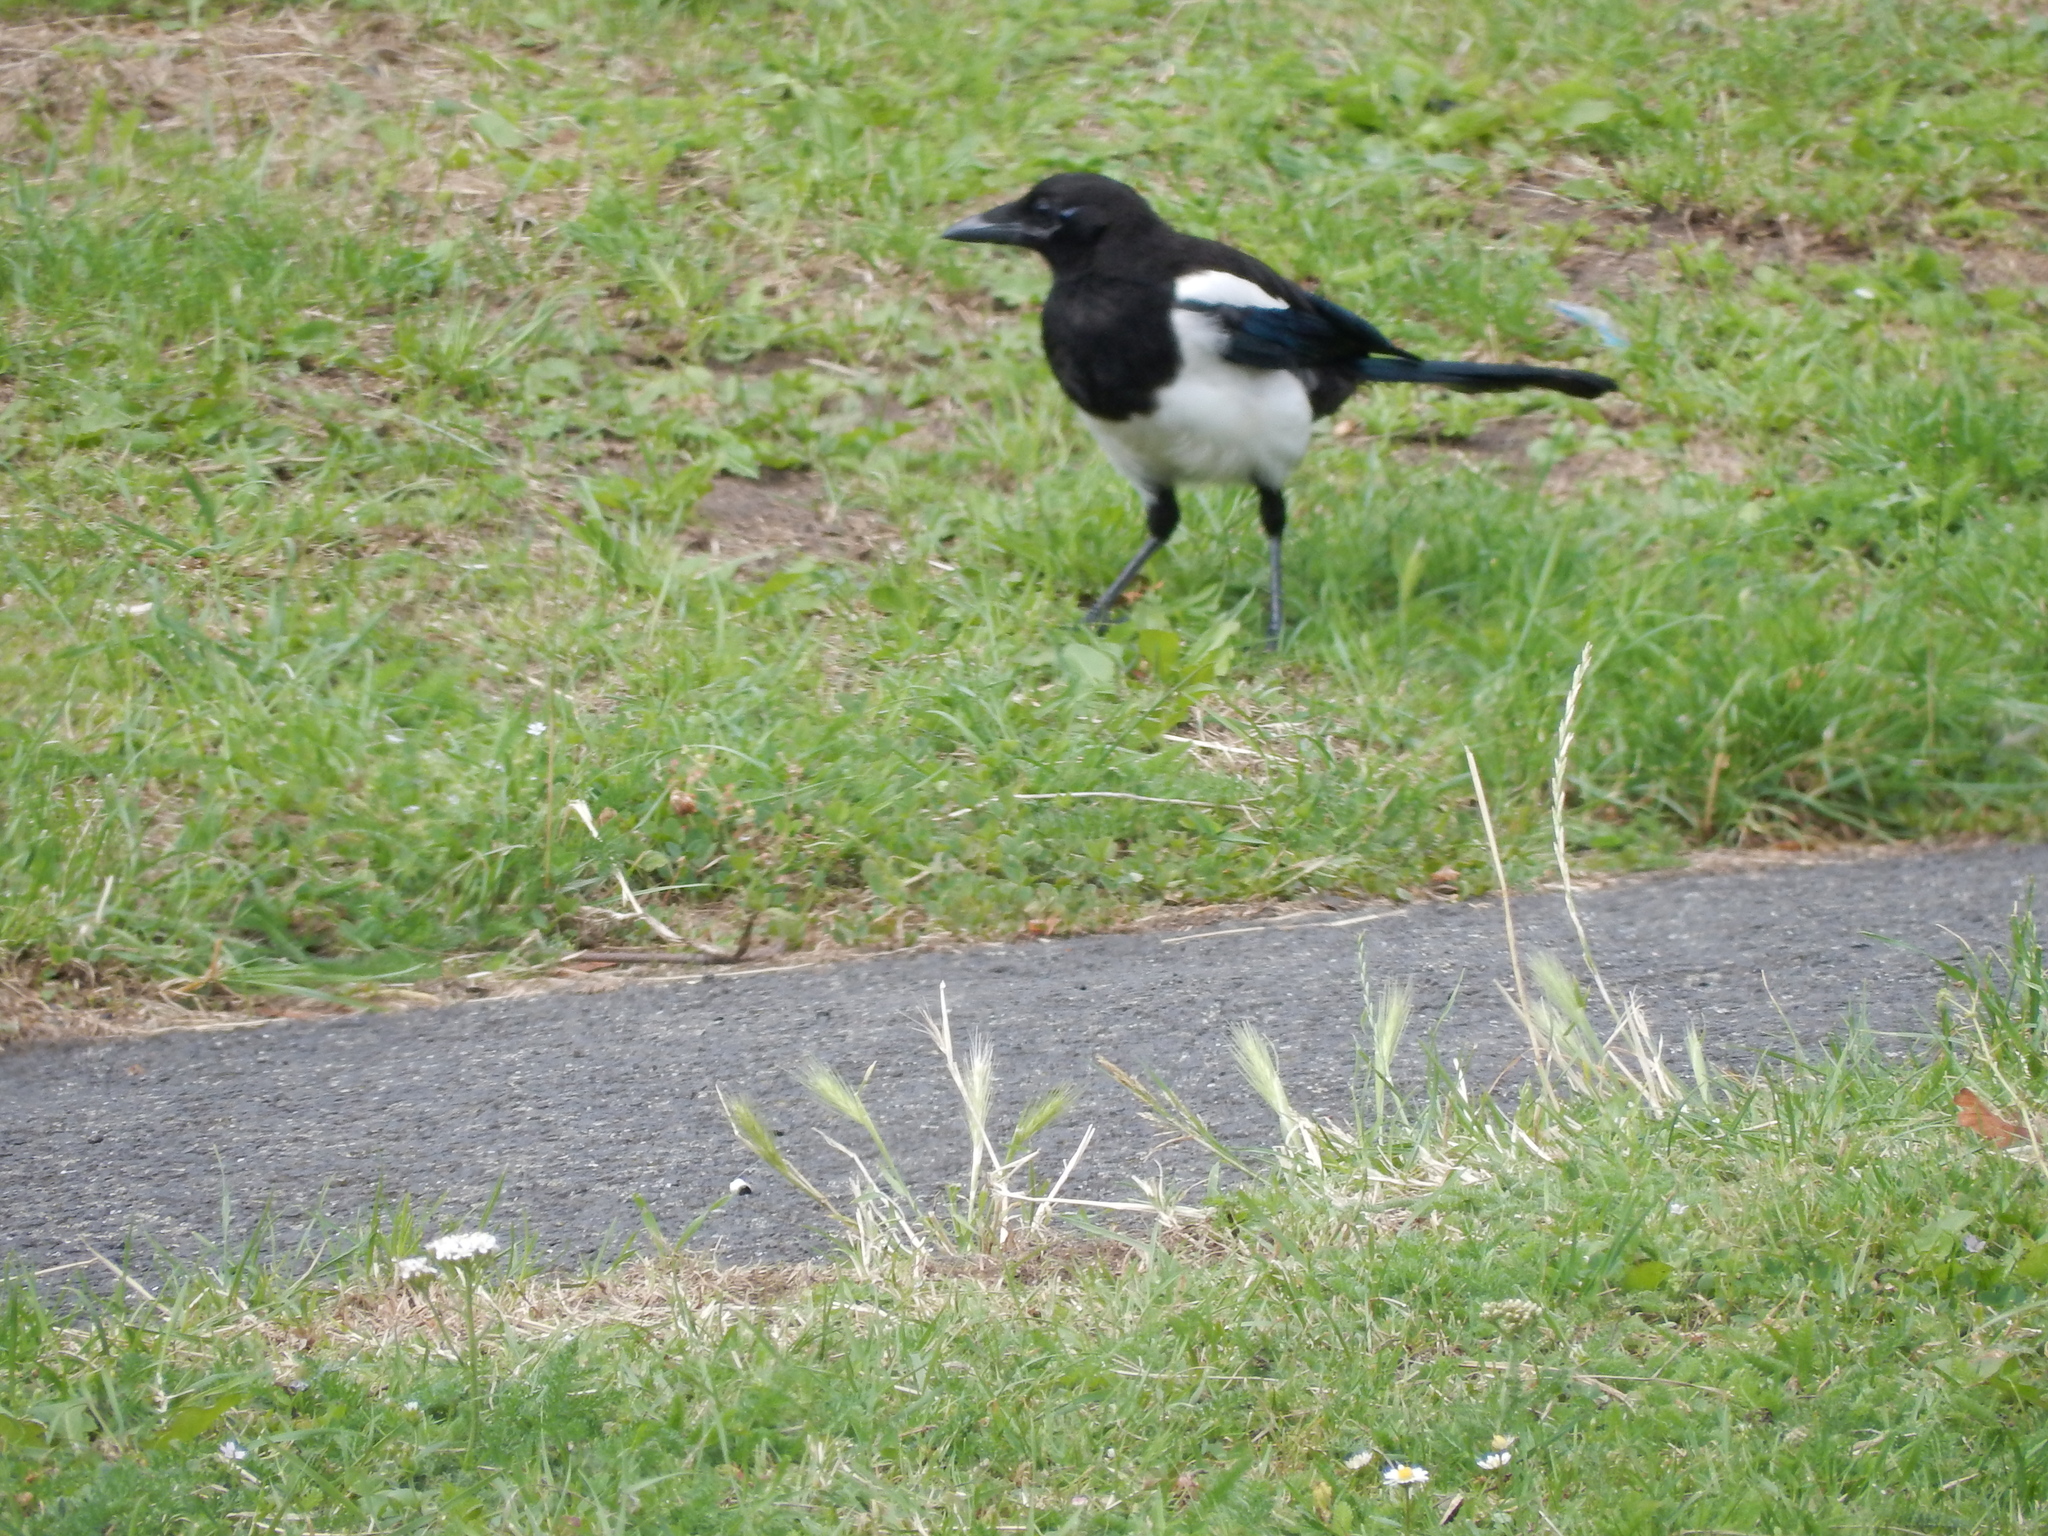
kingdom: Animalia
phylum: Chordata
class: Aves
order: Passeriformes
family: Corvidae
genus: Pica
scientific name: Pica pica
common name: Eurasian magpie
